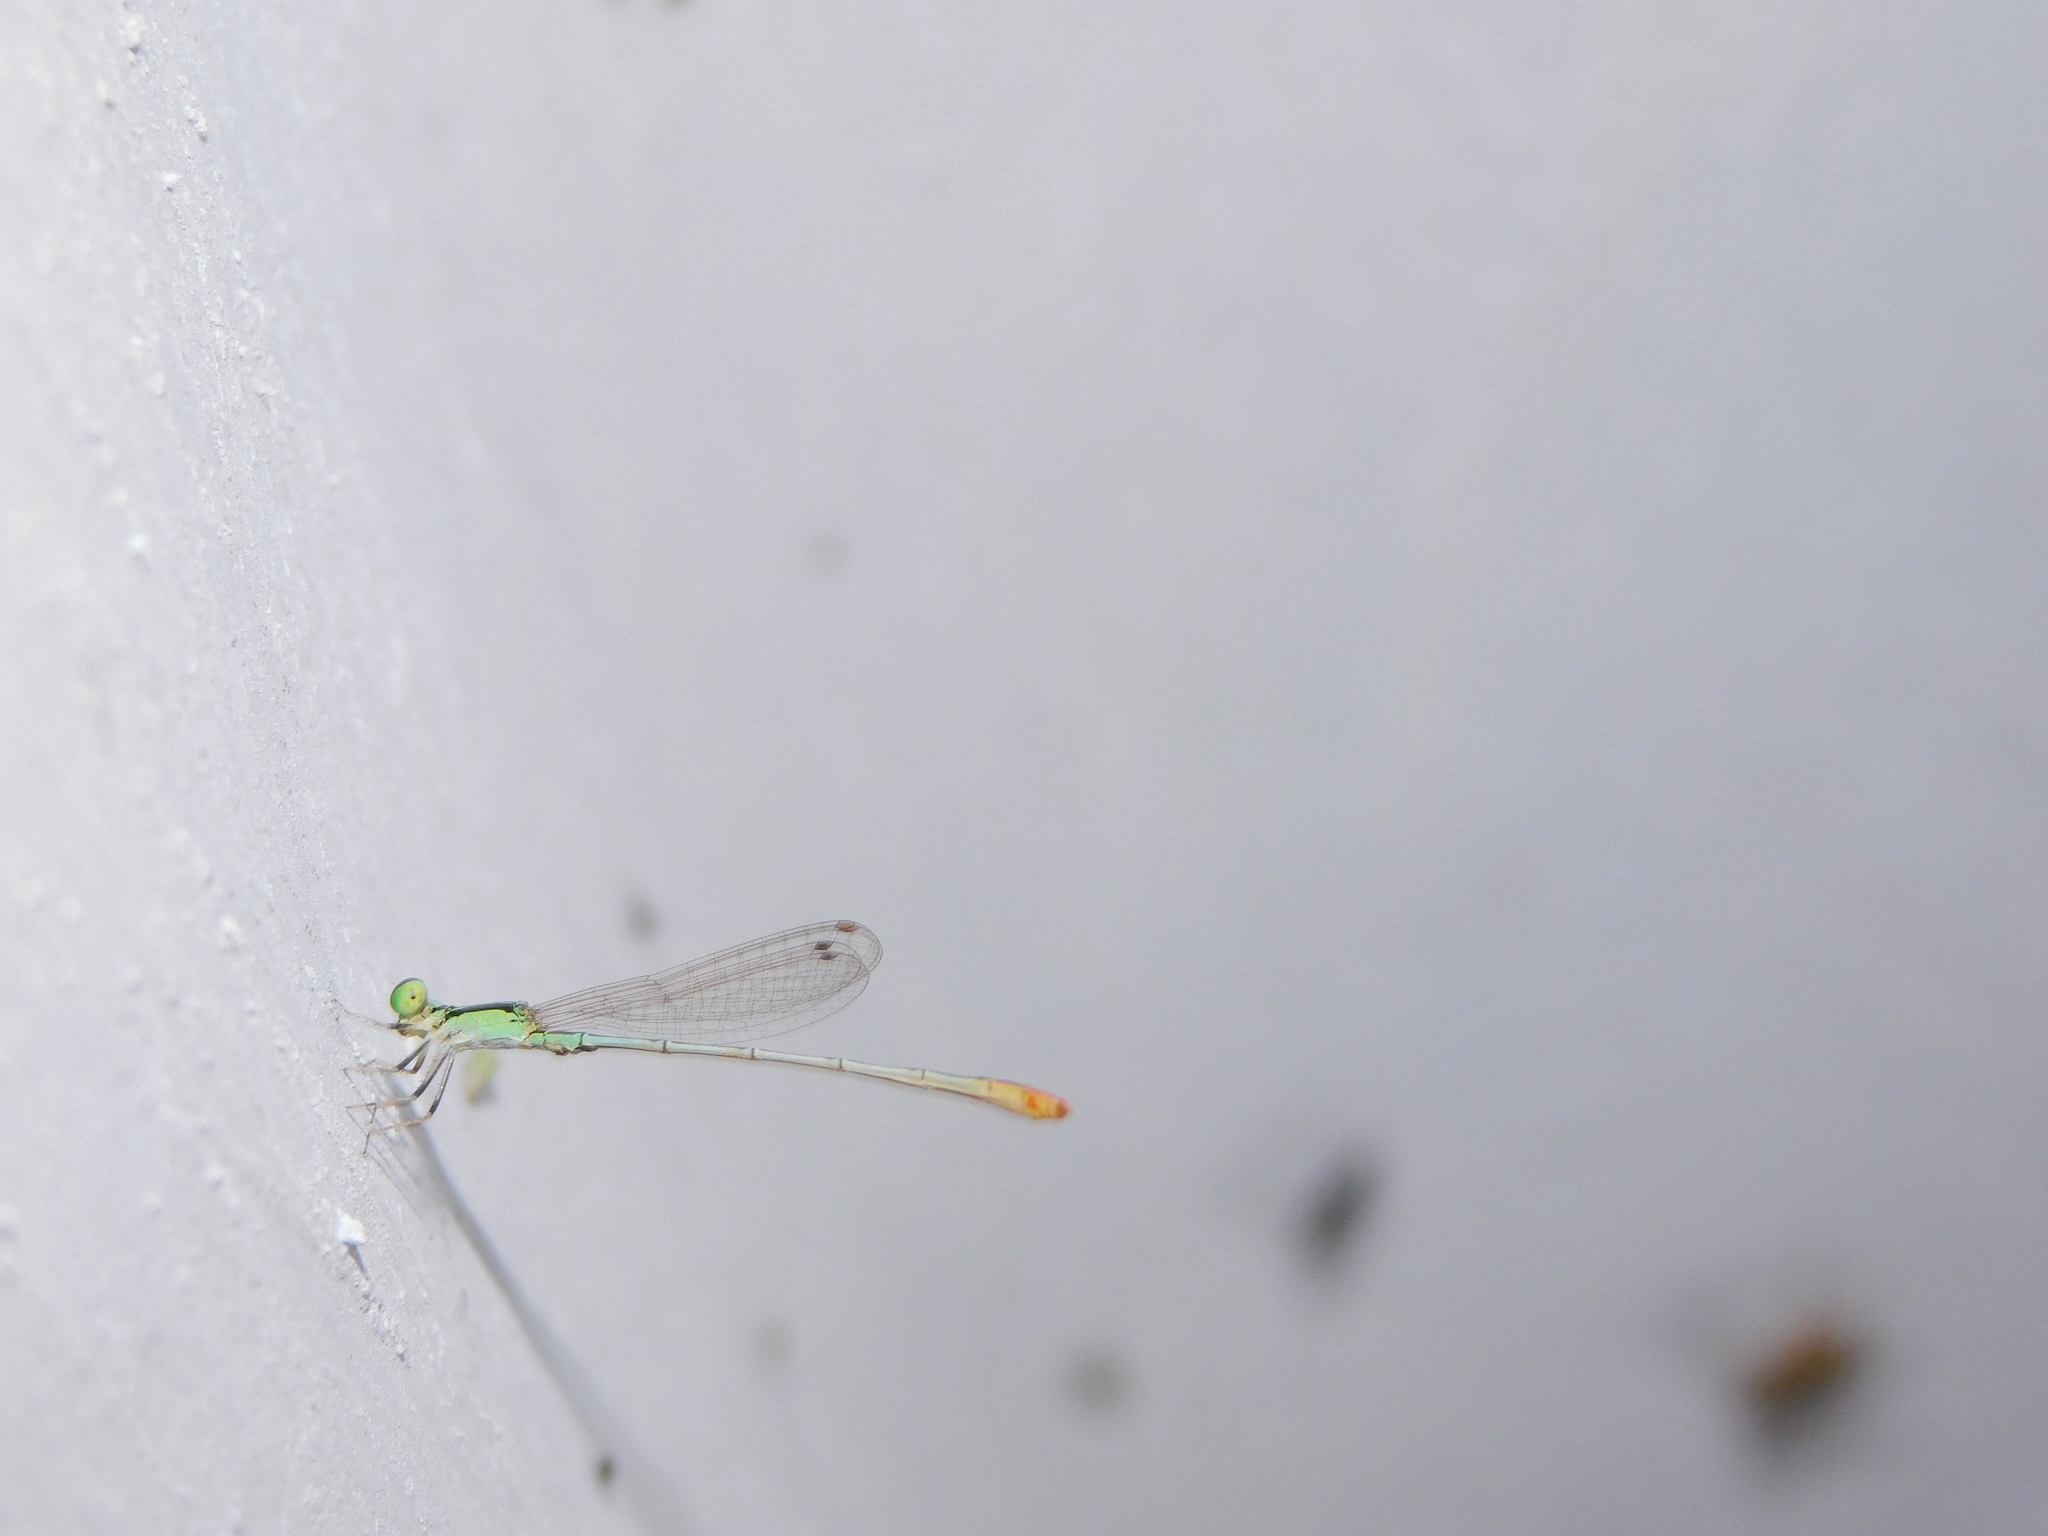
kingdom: Animalia
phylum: Arthropoda
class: Insecta
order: Odonata
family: Coenagrionidae
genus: Agriocnemis
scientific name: Agriocnemis pygmaea
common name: Pygmy wisp
